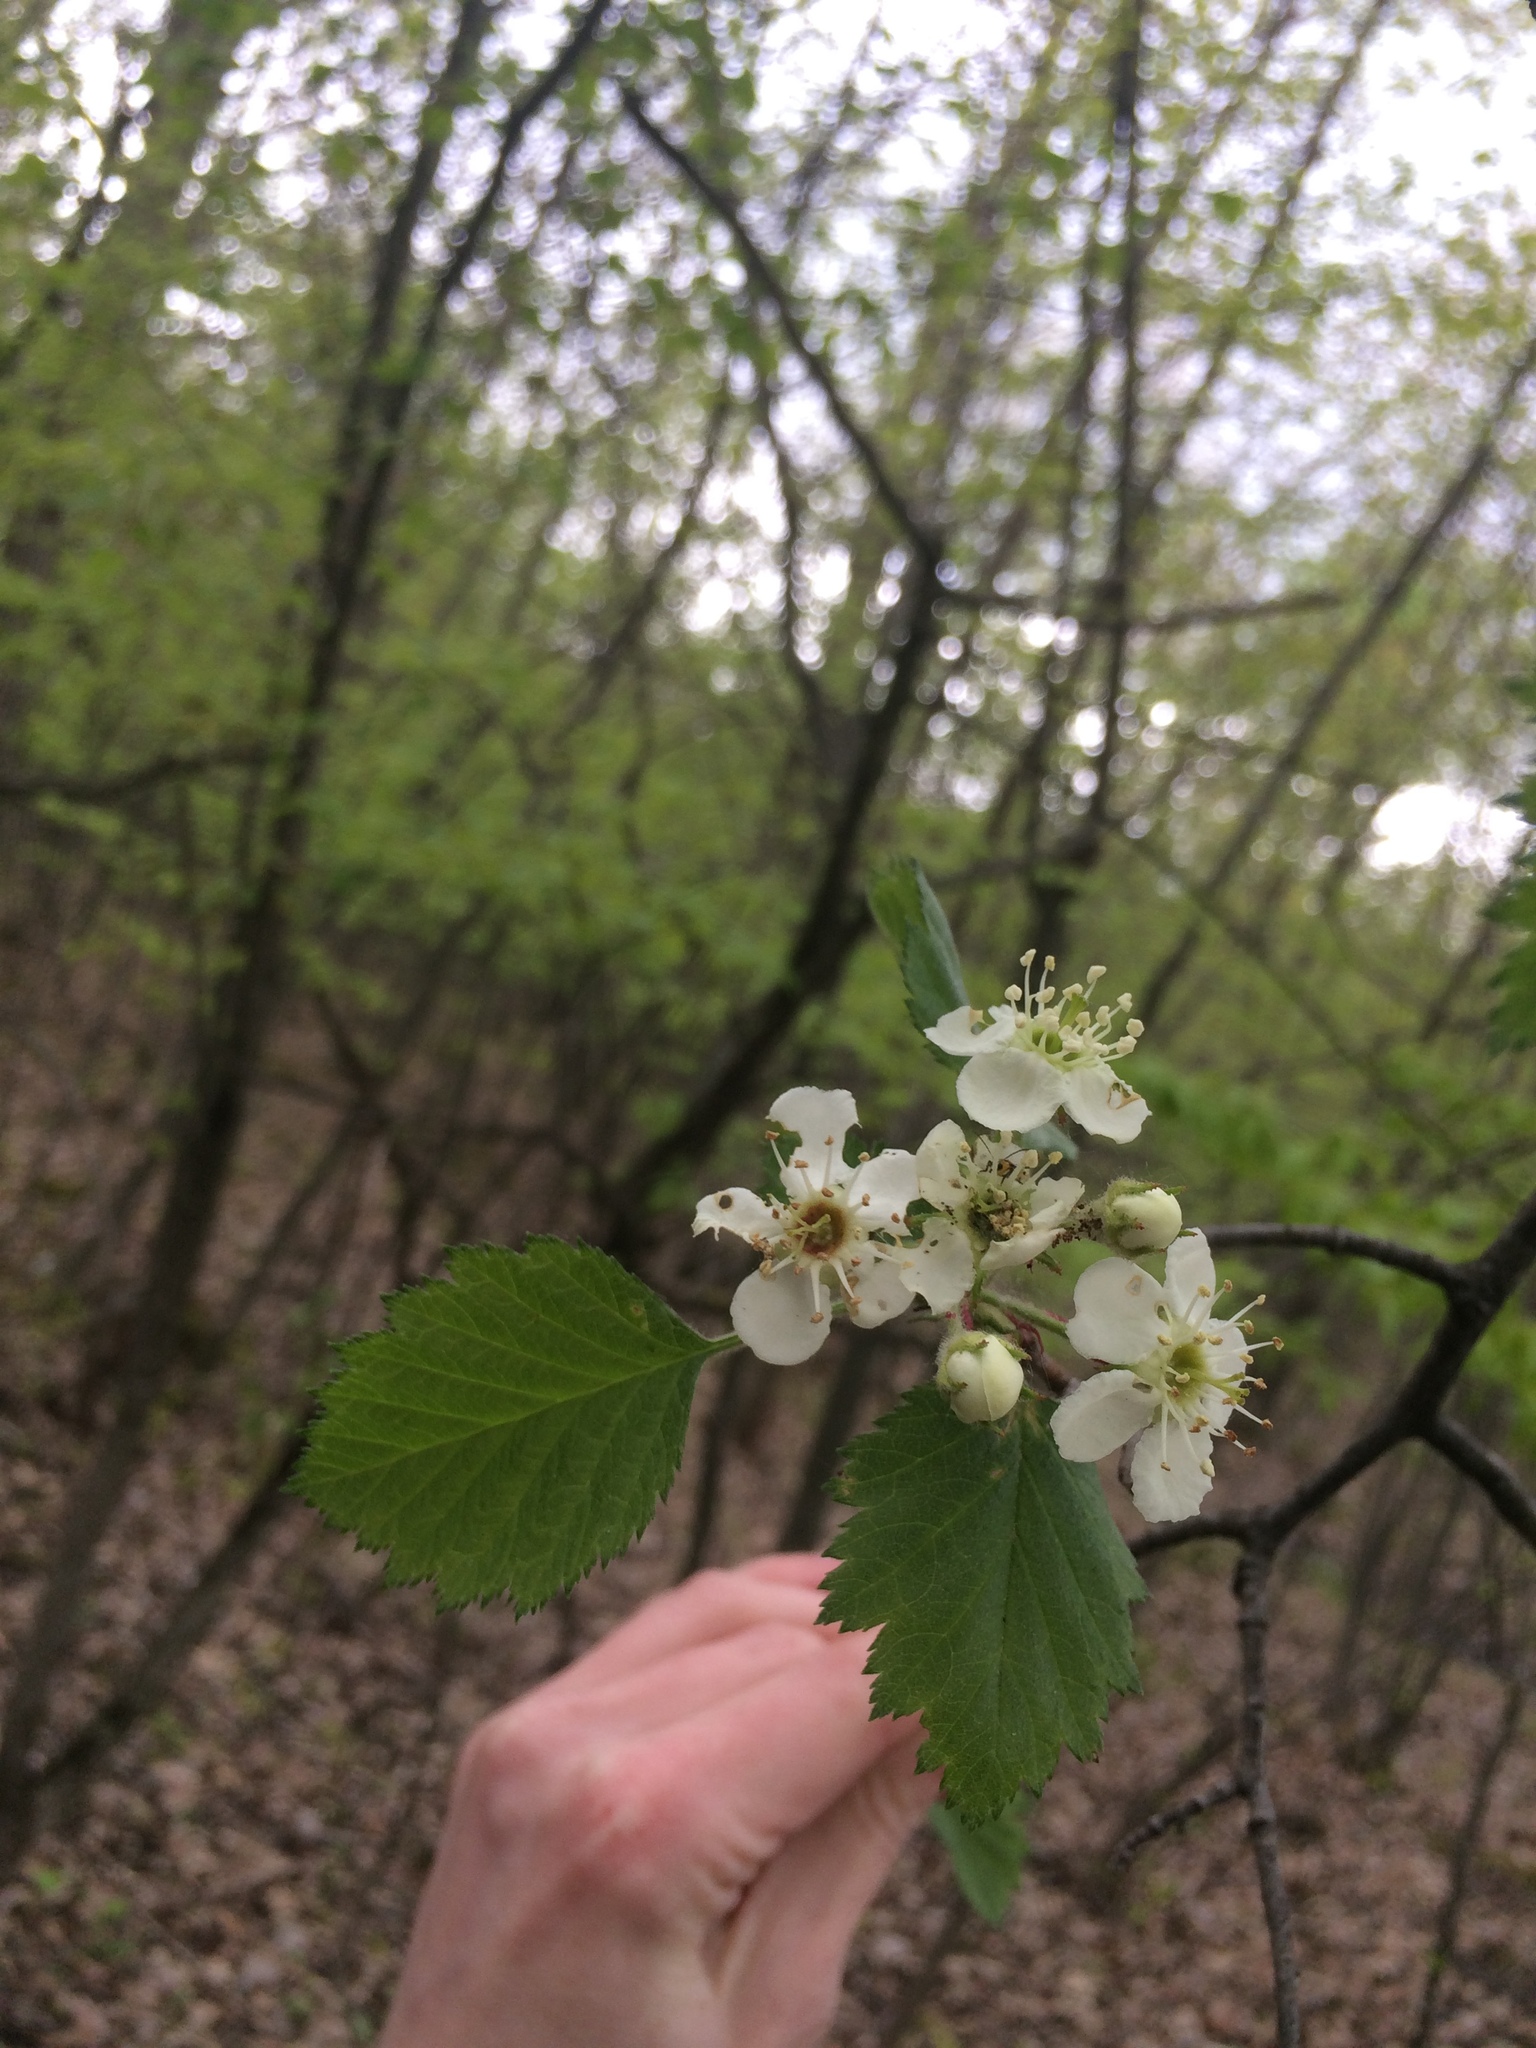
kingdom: Plantae
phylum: Tracheophyta
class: Magnoliopsida
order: Rosales
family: Rosaceae
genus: Crataegus
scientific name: Crataegus submollis
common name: Hairy cockspurthorn
